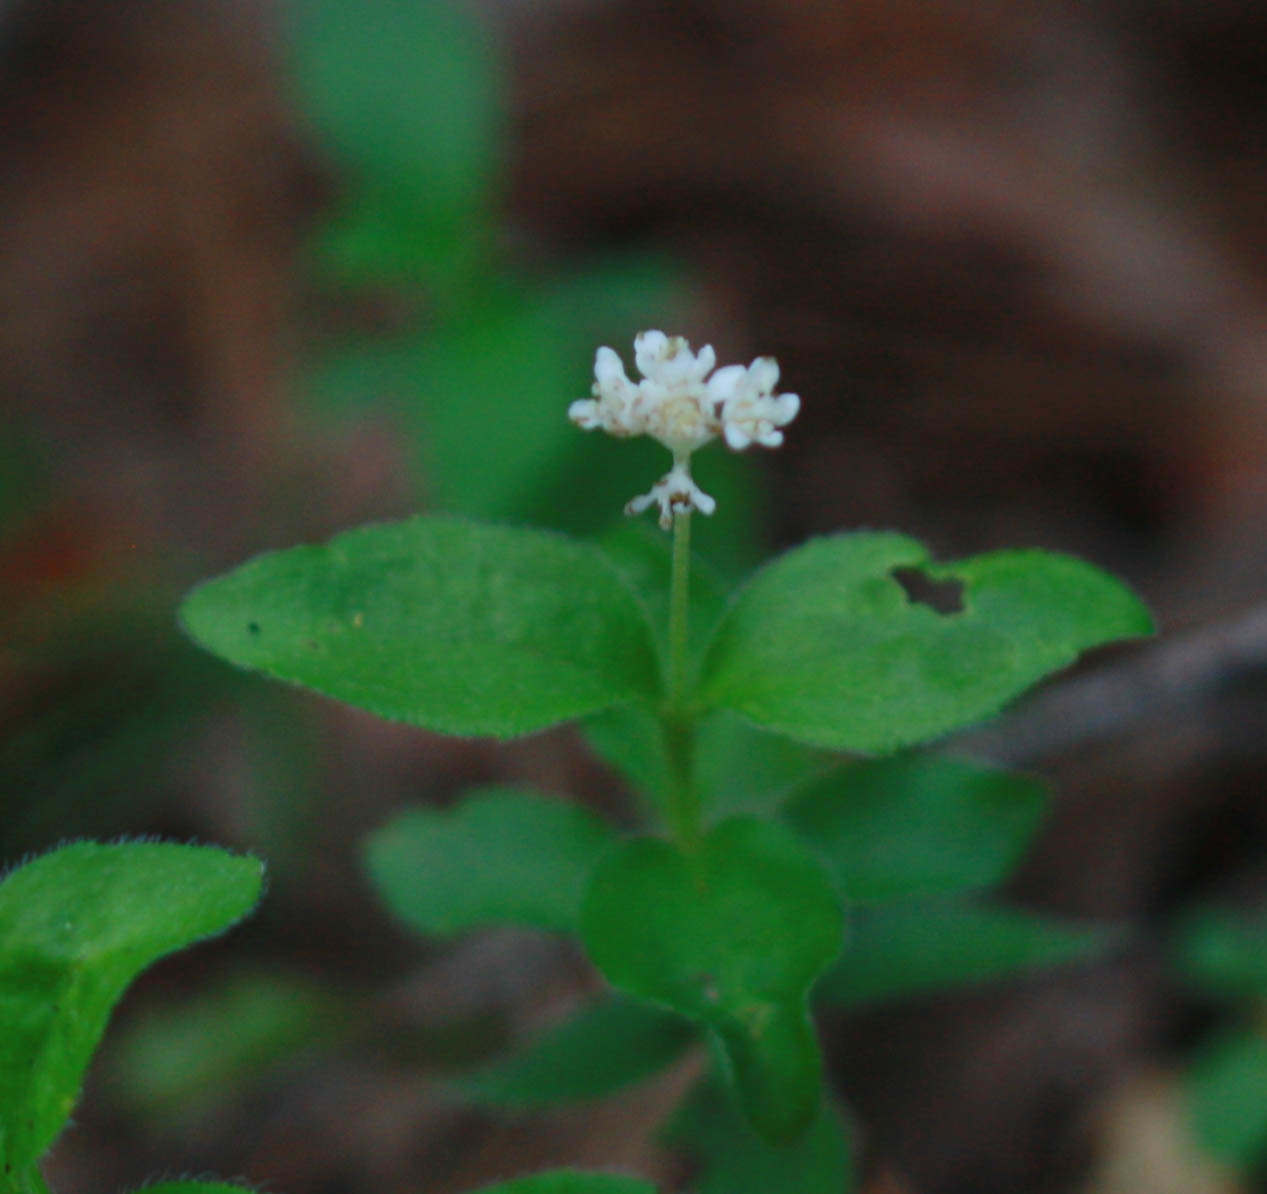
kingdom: Plantae
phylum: Tracheophyta
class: Magnoliopsida
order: Cornales
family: Hydrangeaceae
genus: Whipplea
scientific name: Whipplea modesta
